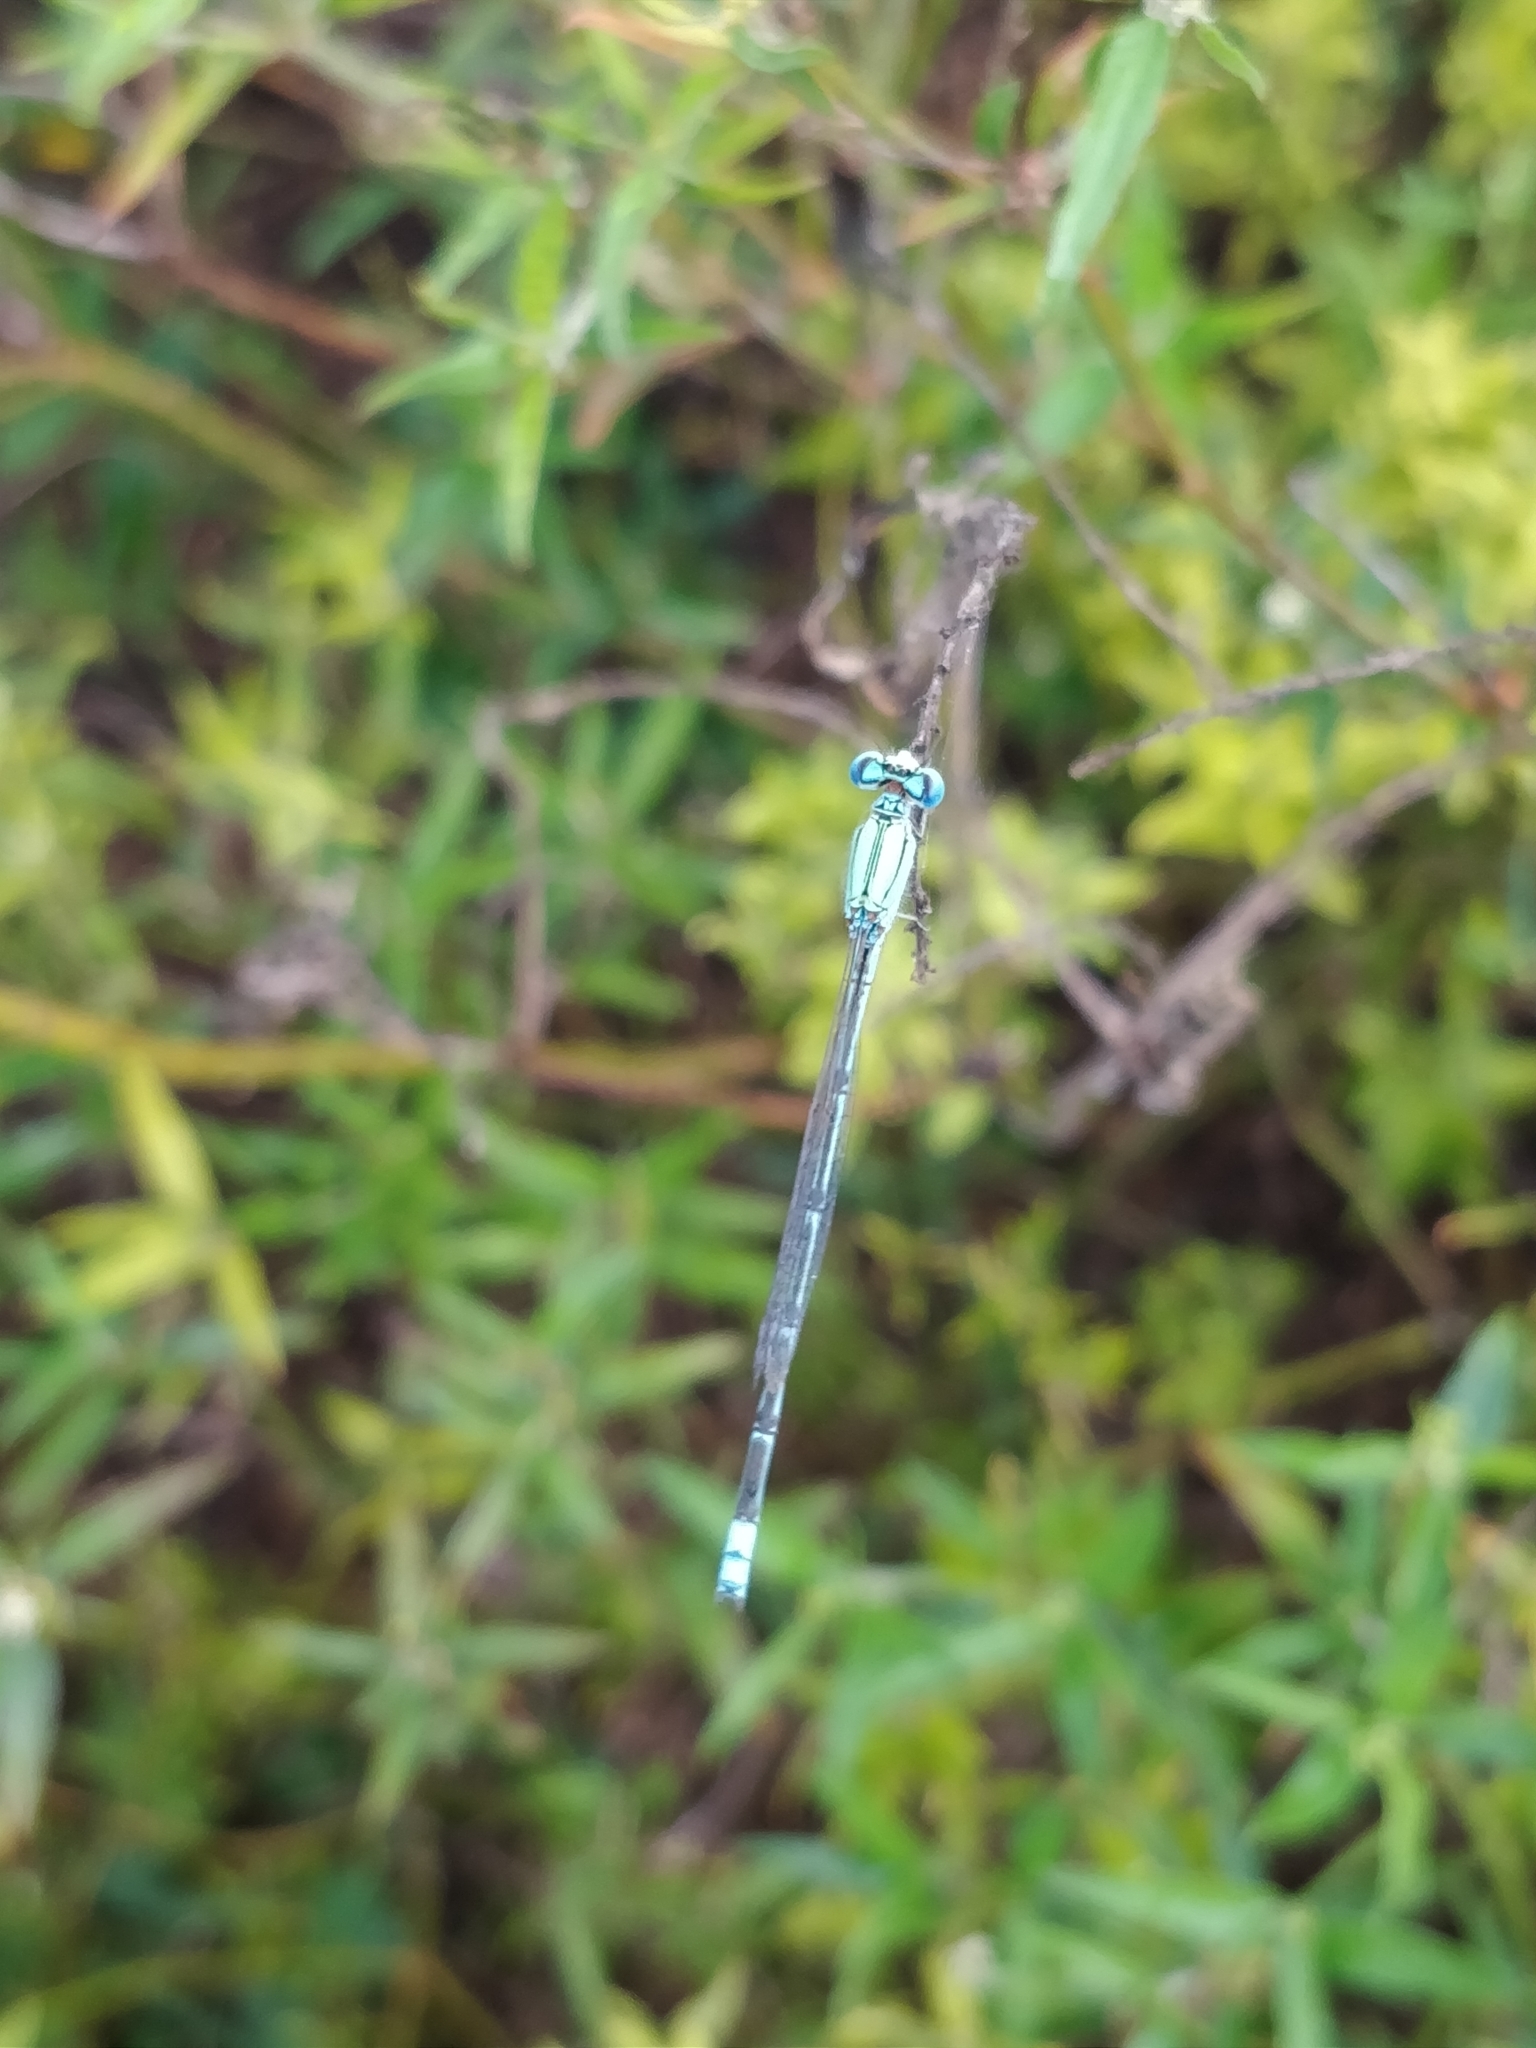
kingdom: Animalia
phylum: Arthropoda
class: Insecta
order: Odonata
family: Coenagrionidae
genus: Pseudagrion
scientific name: Pseudagrion decorum
